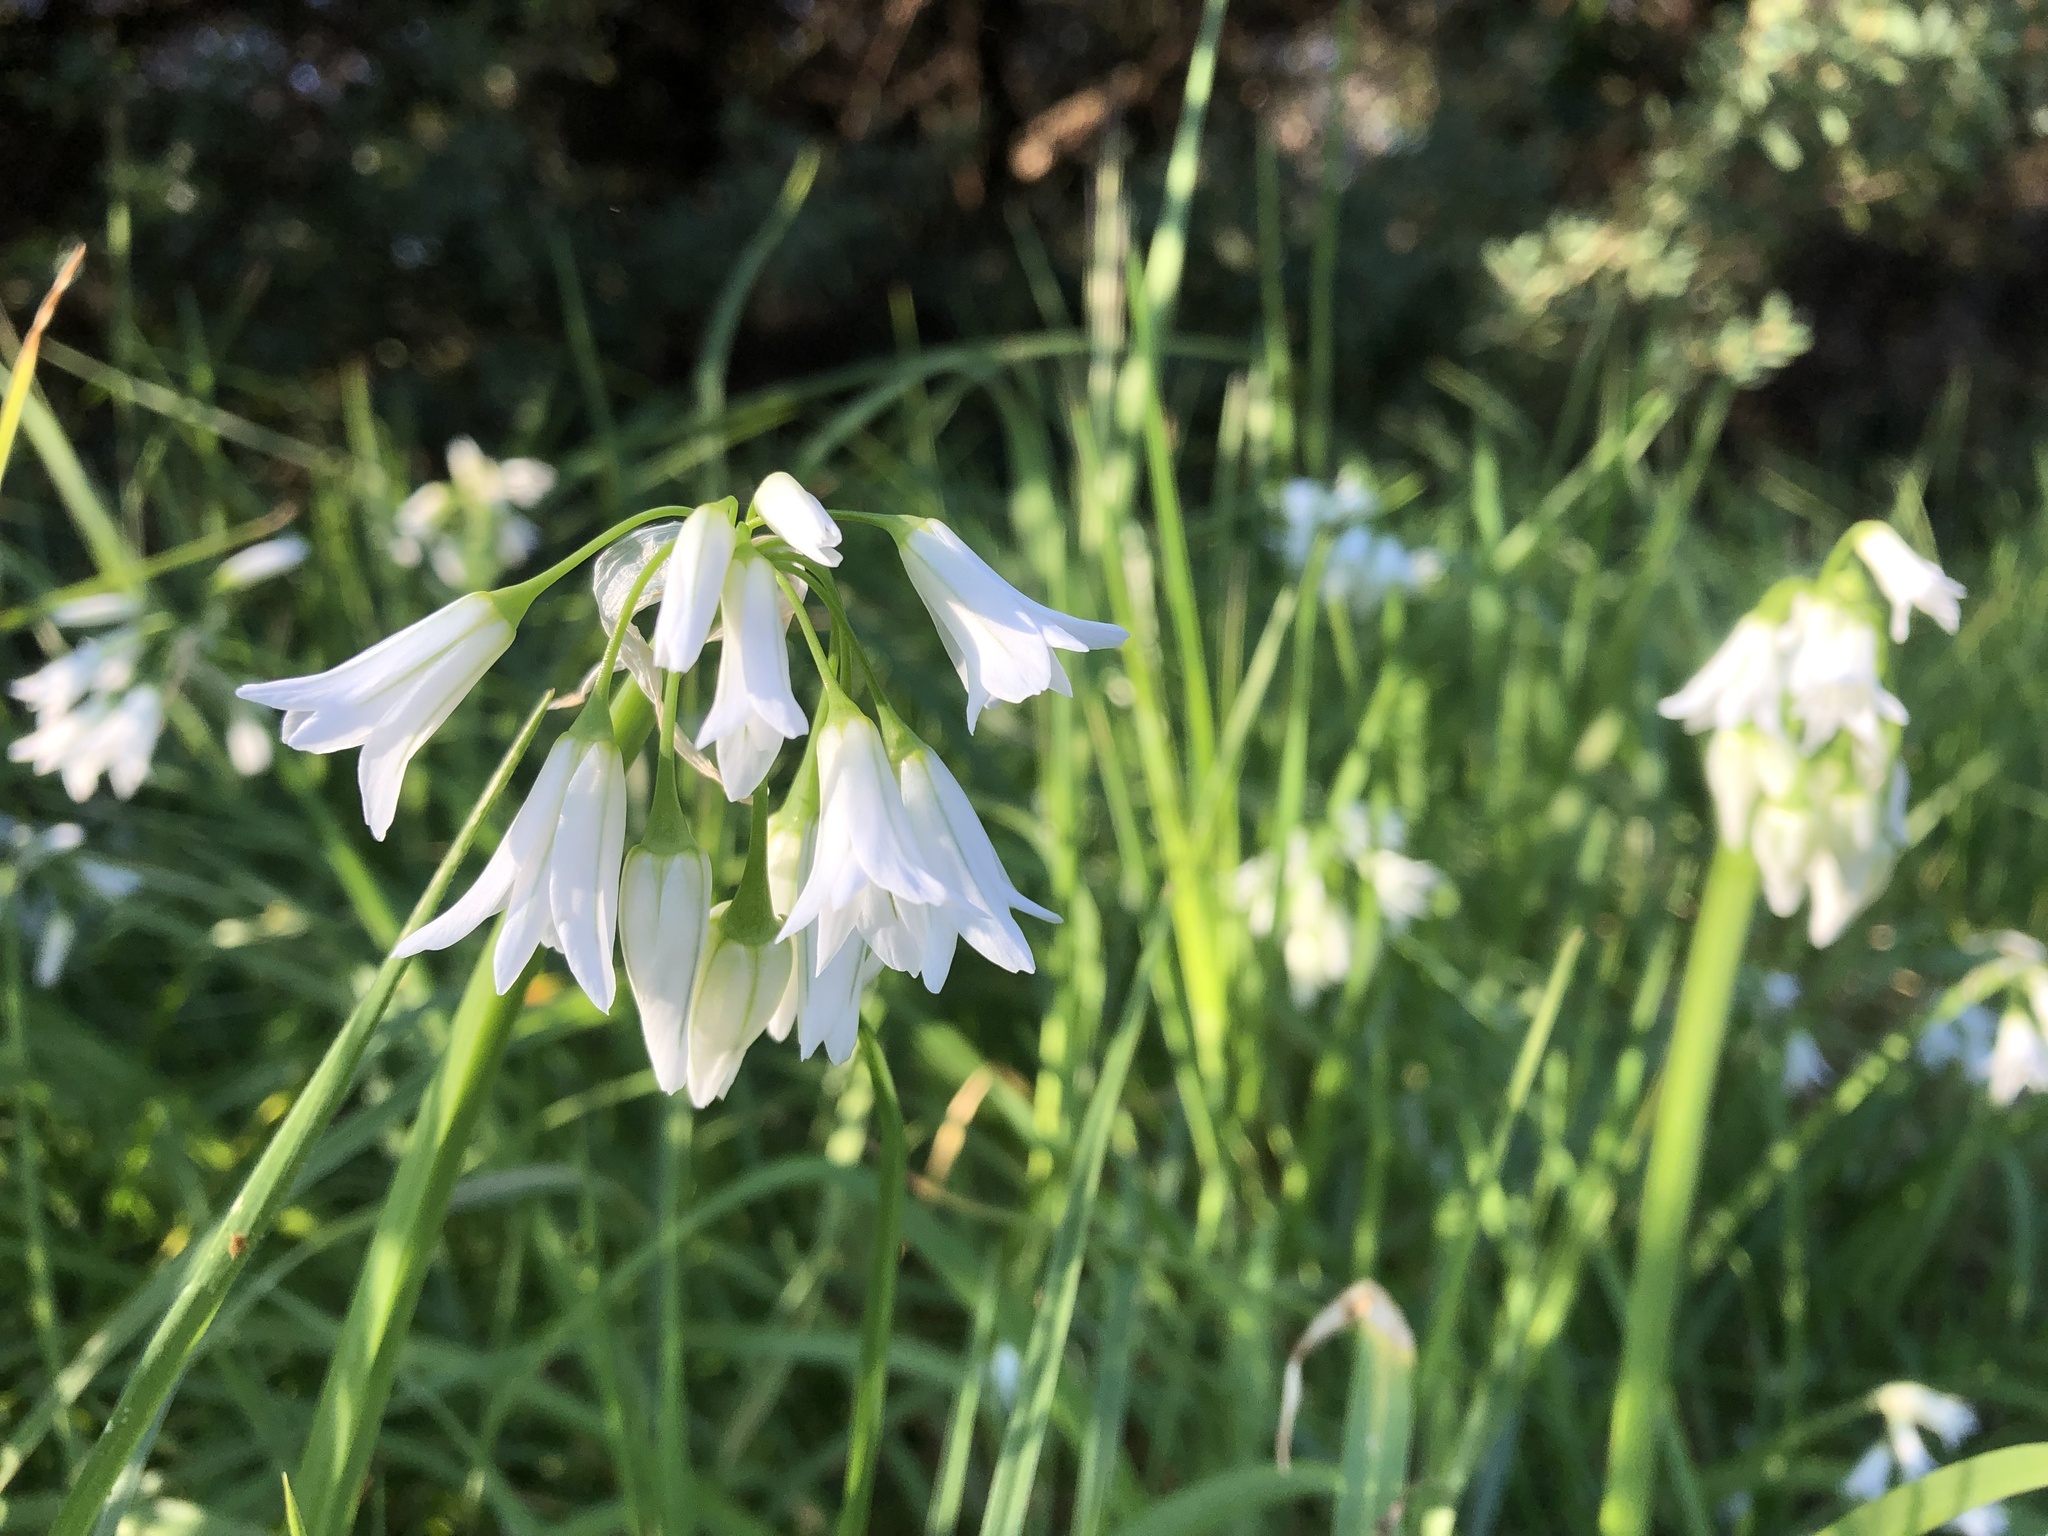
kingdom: Plantae
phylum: Tracheophyta
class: Liliopsida
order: Asparagales
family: Amaryllidaceae
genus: Allium
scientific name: Allium triquetrum
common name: Three-cornered garlic
